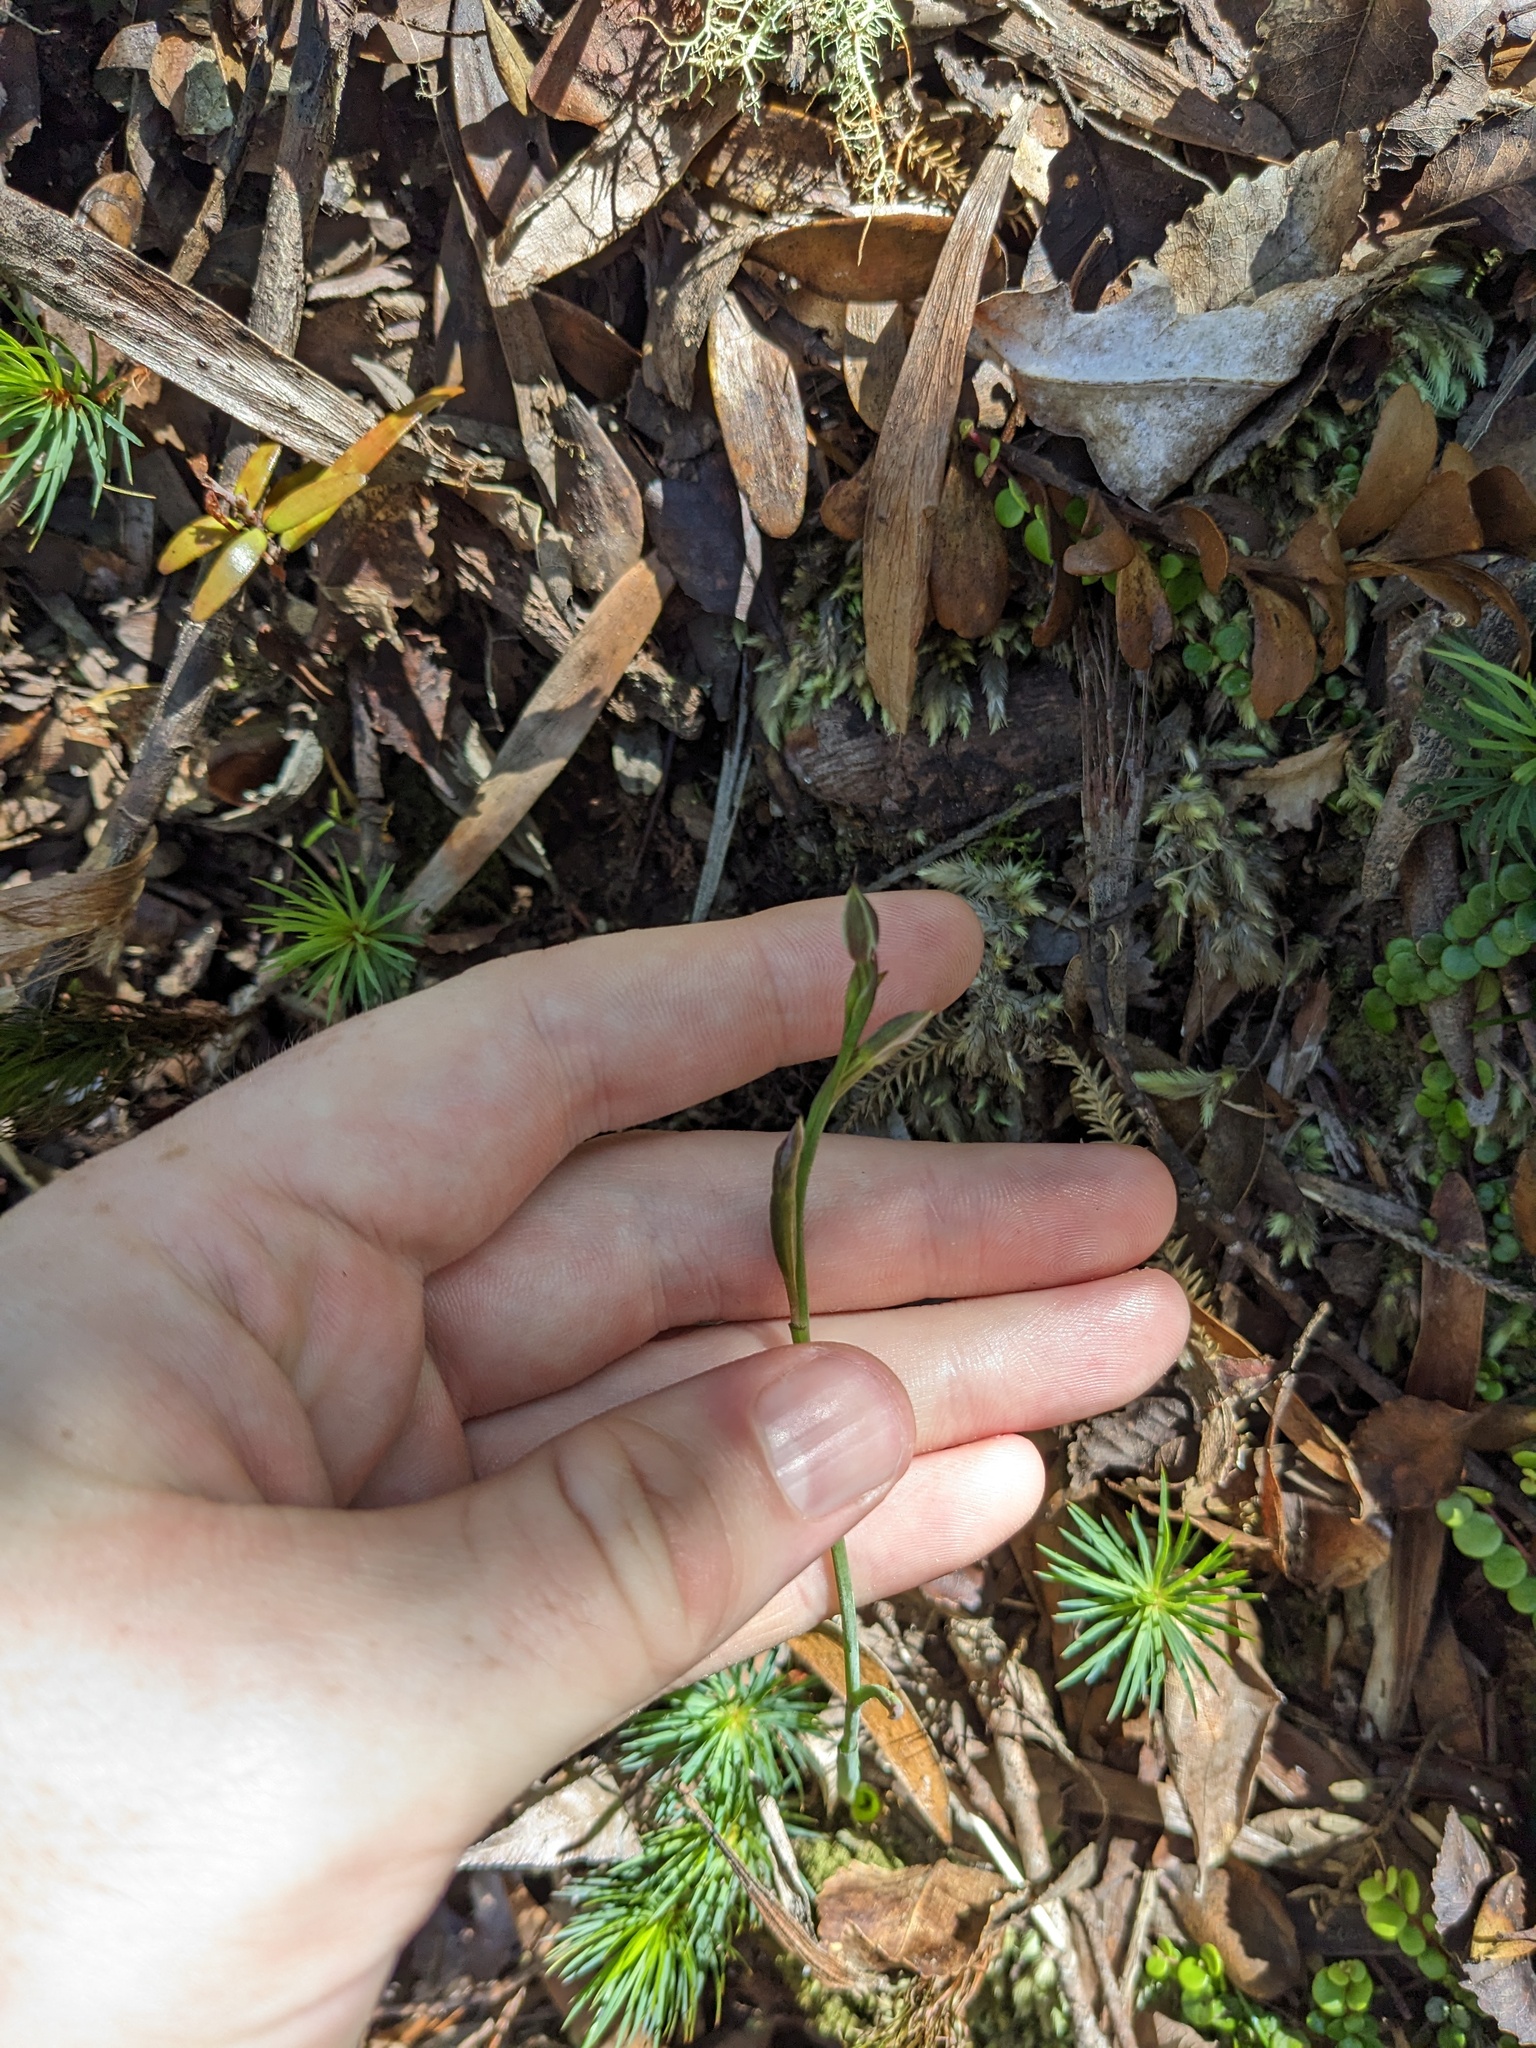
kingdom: Plantae
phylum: Tracheophyta
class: Liliopsida
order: Asparagales
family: Orchidaceae
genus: Thelymitra
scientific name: Thelymitra hatchii
